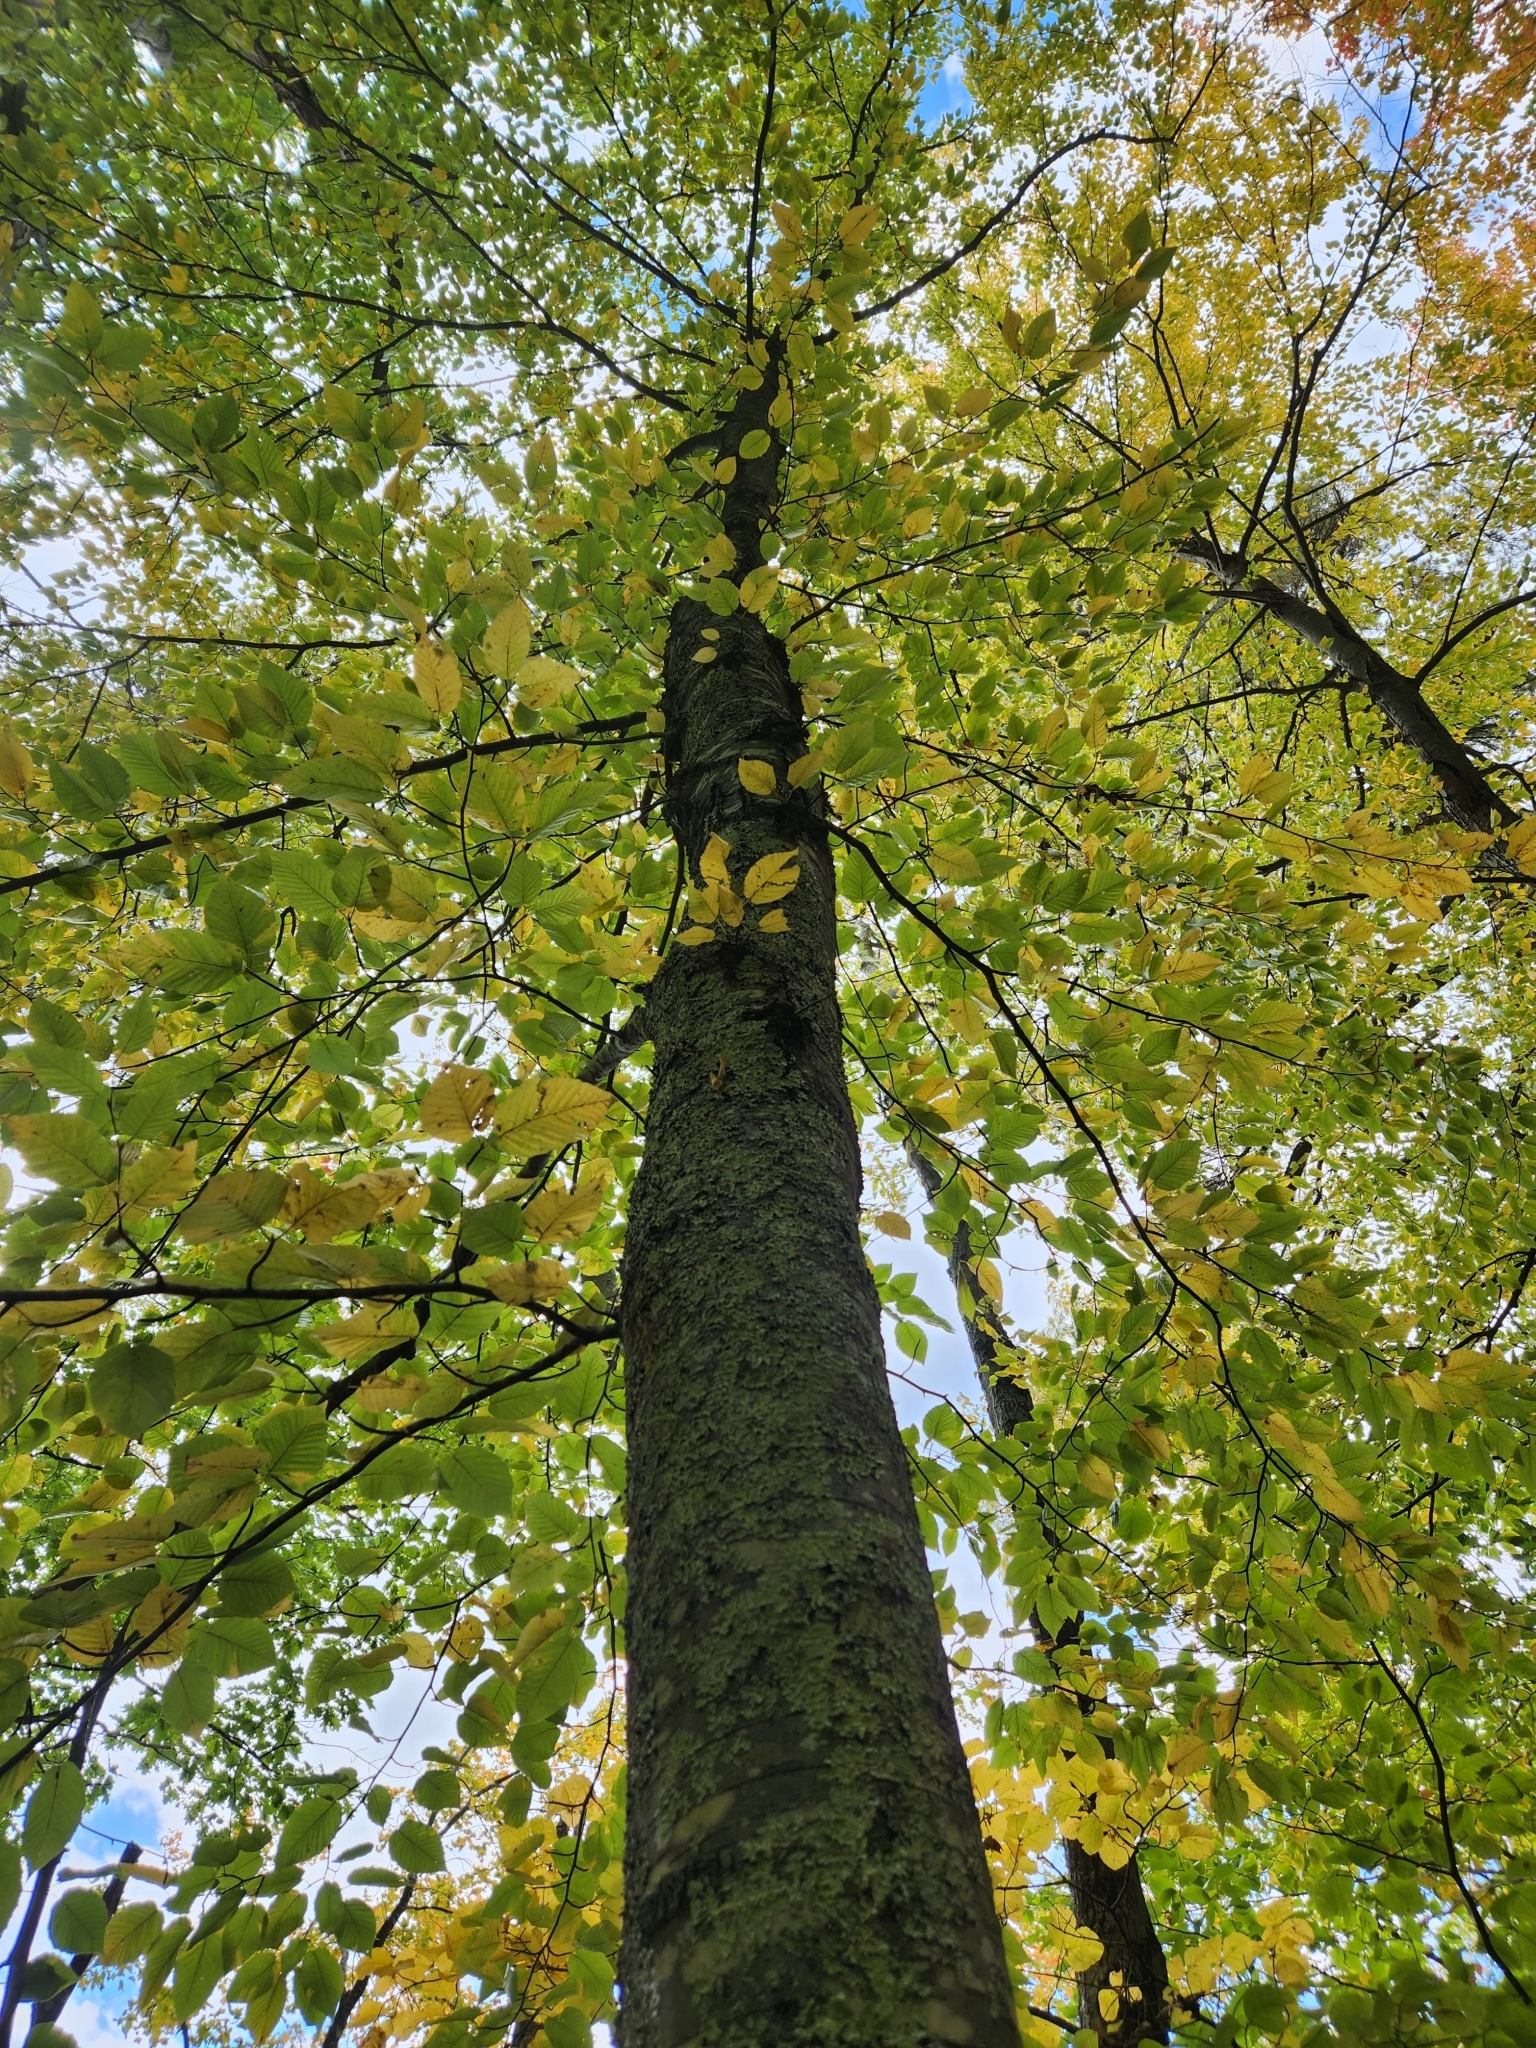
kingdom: Plantae
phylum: Tracheophyta
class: Magnoliopsida
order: Fagales
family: Betulaceae
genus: Betula
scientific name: Betula lenta
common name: Black birch
